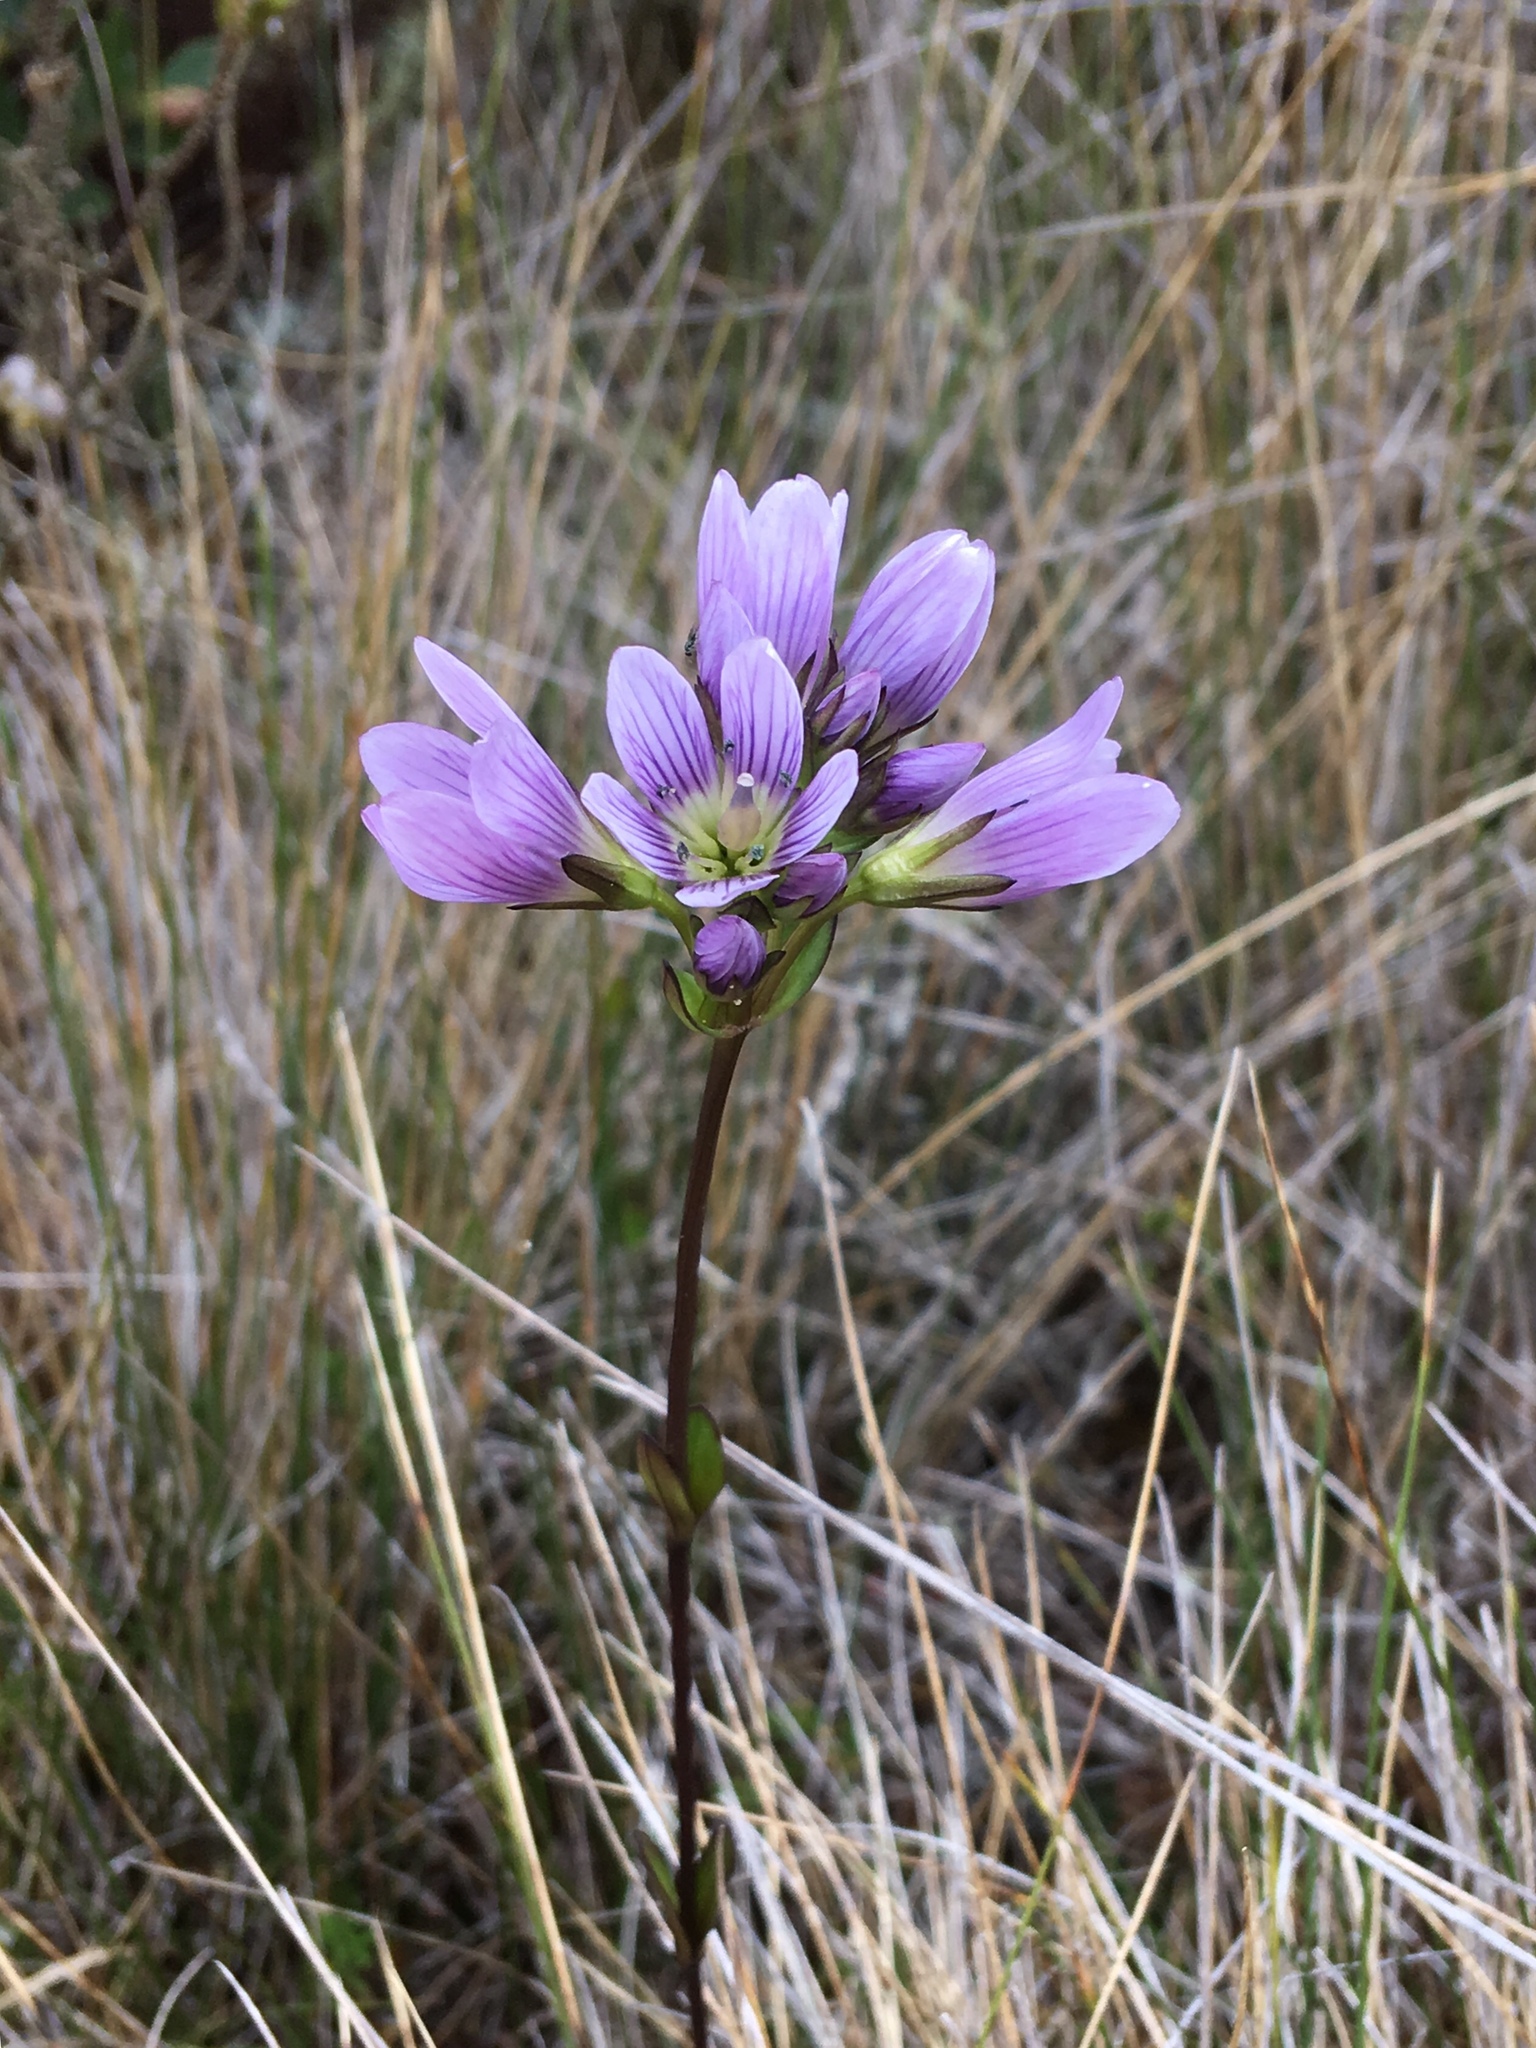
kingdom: Plantae
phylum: Tracheophyta
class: Magnoliopsida
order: Gentianales
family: Gentianaceae
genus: Gentianella
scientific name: Gentianella corymbosa
